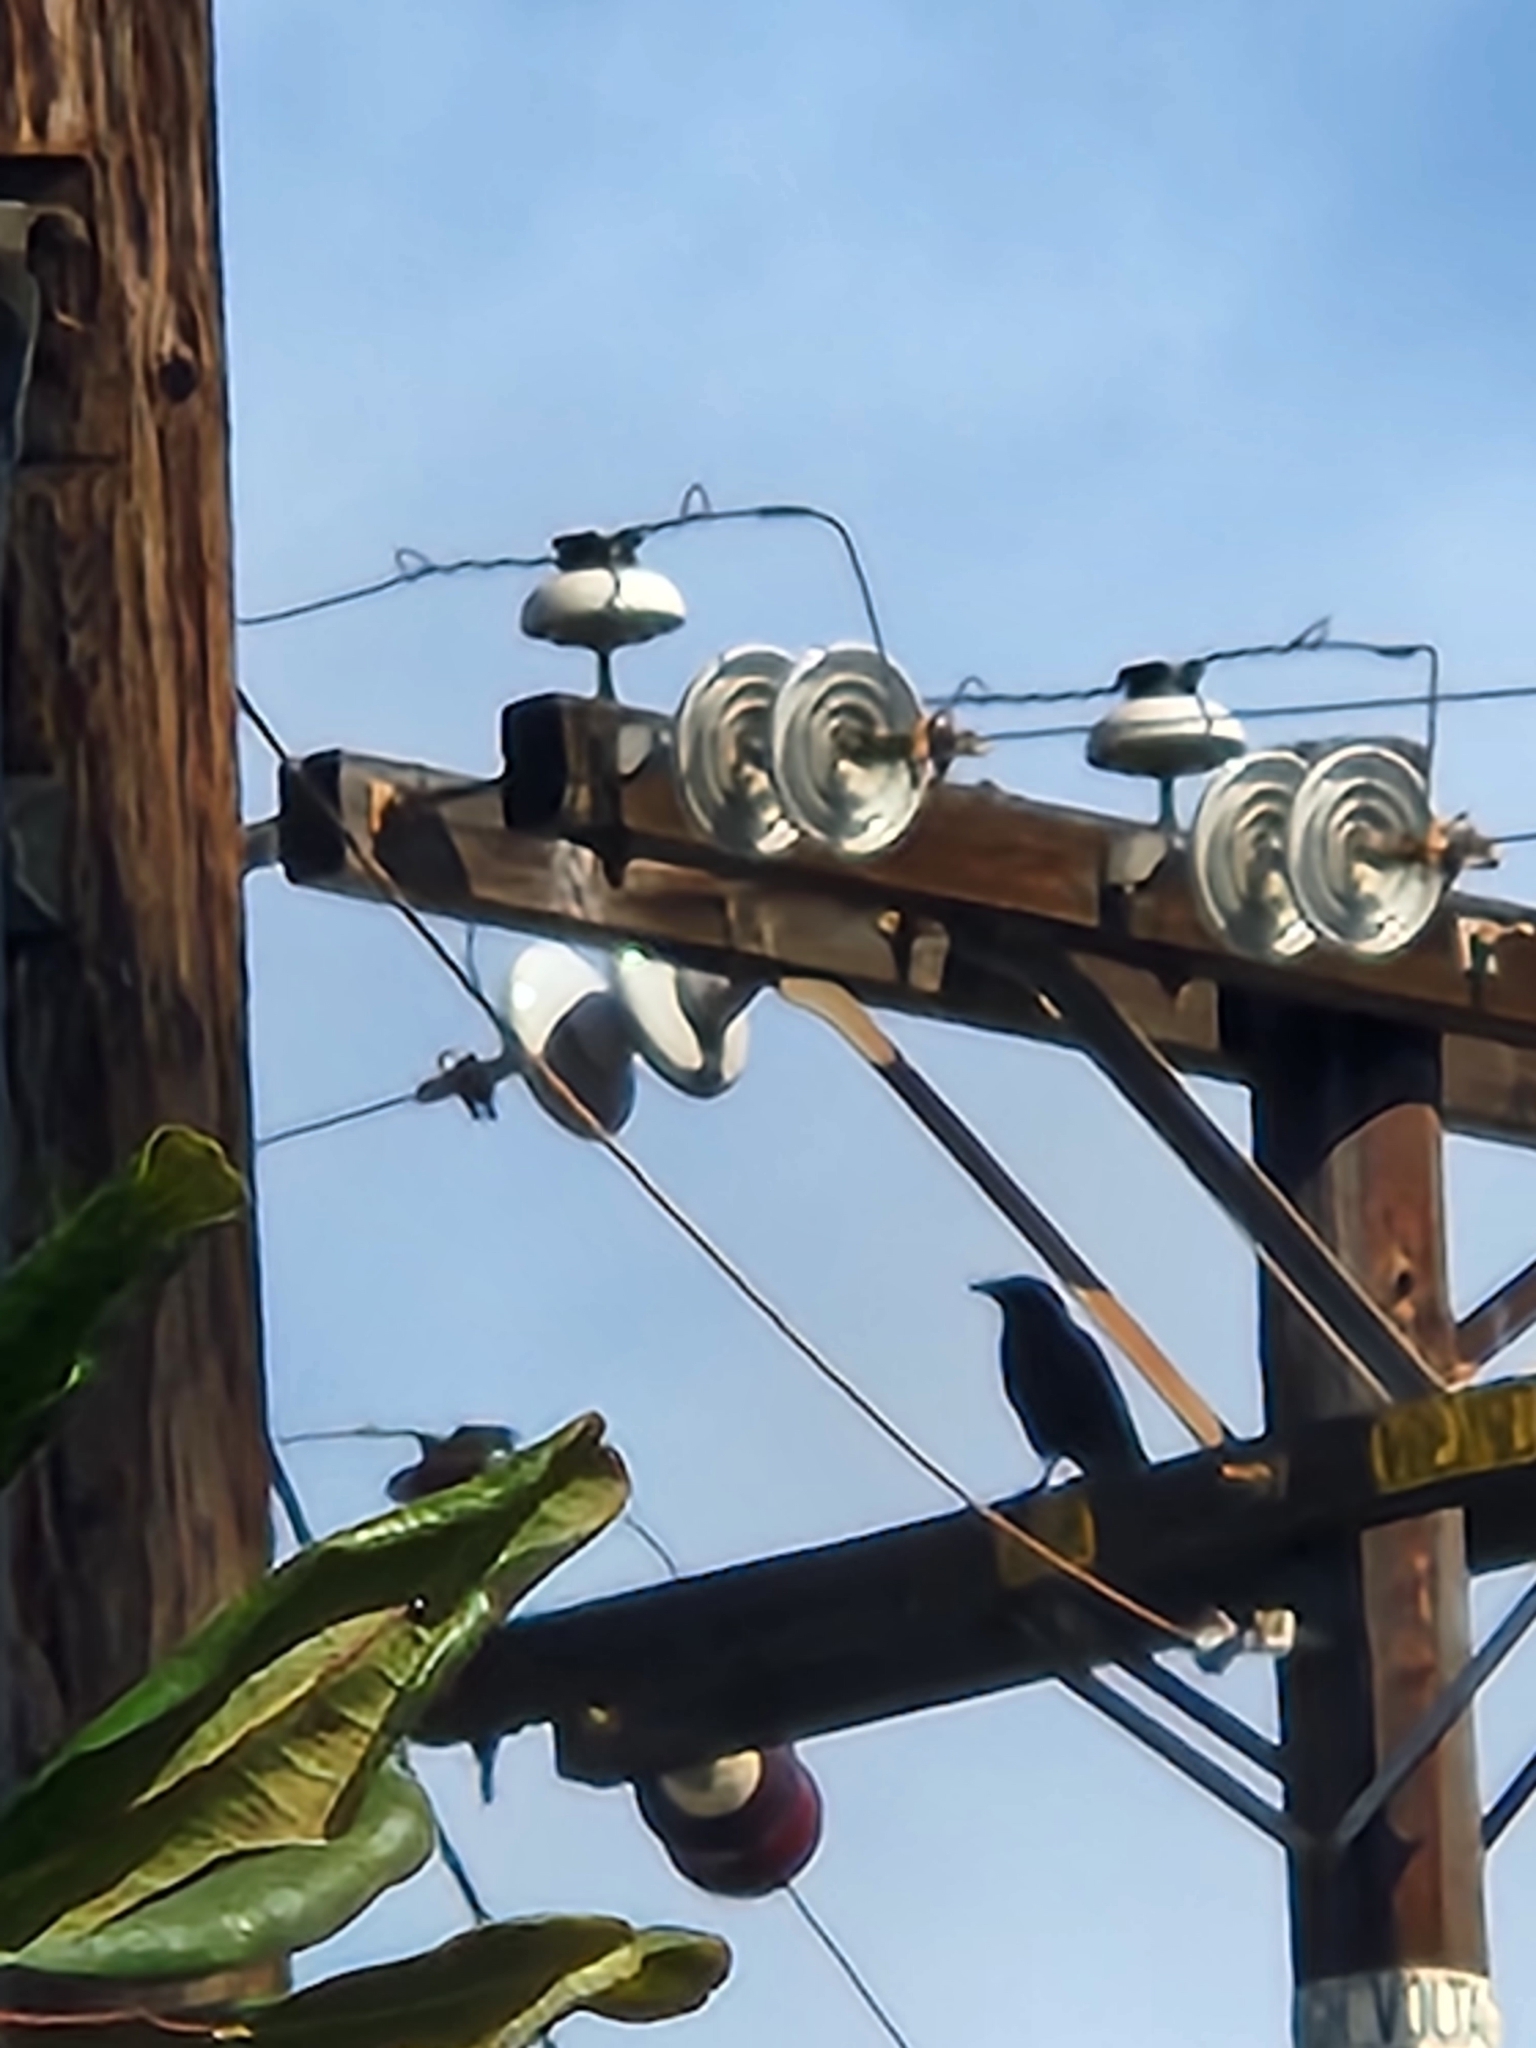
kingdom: Animalia
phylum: Chordata
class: Aves
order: Passeriformes
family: Corvidae
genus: Corvus
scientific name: Corvus brachyrhynchos
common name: American crow
